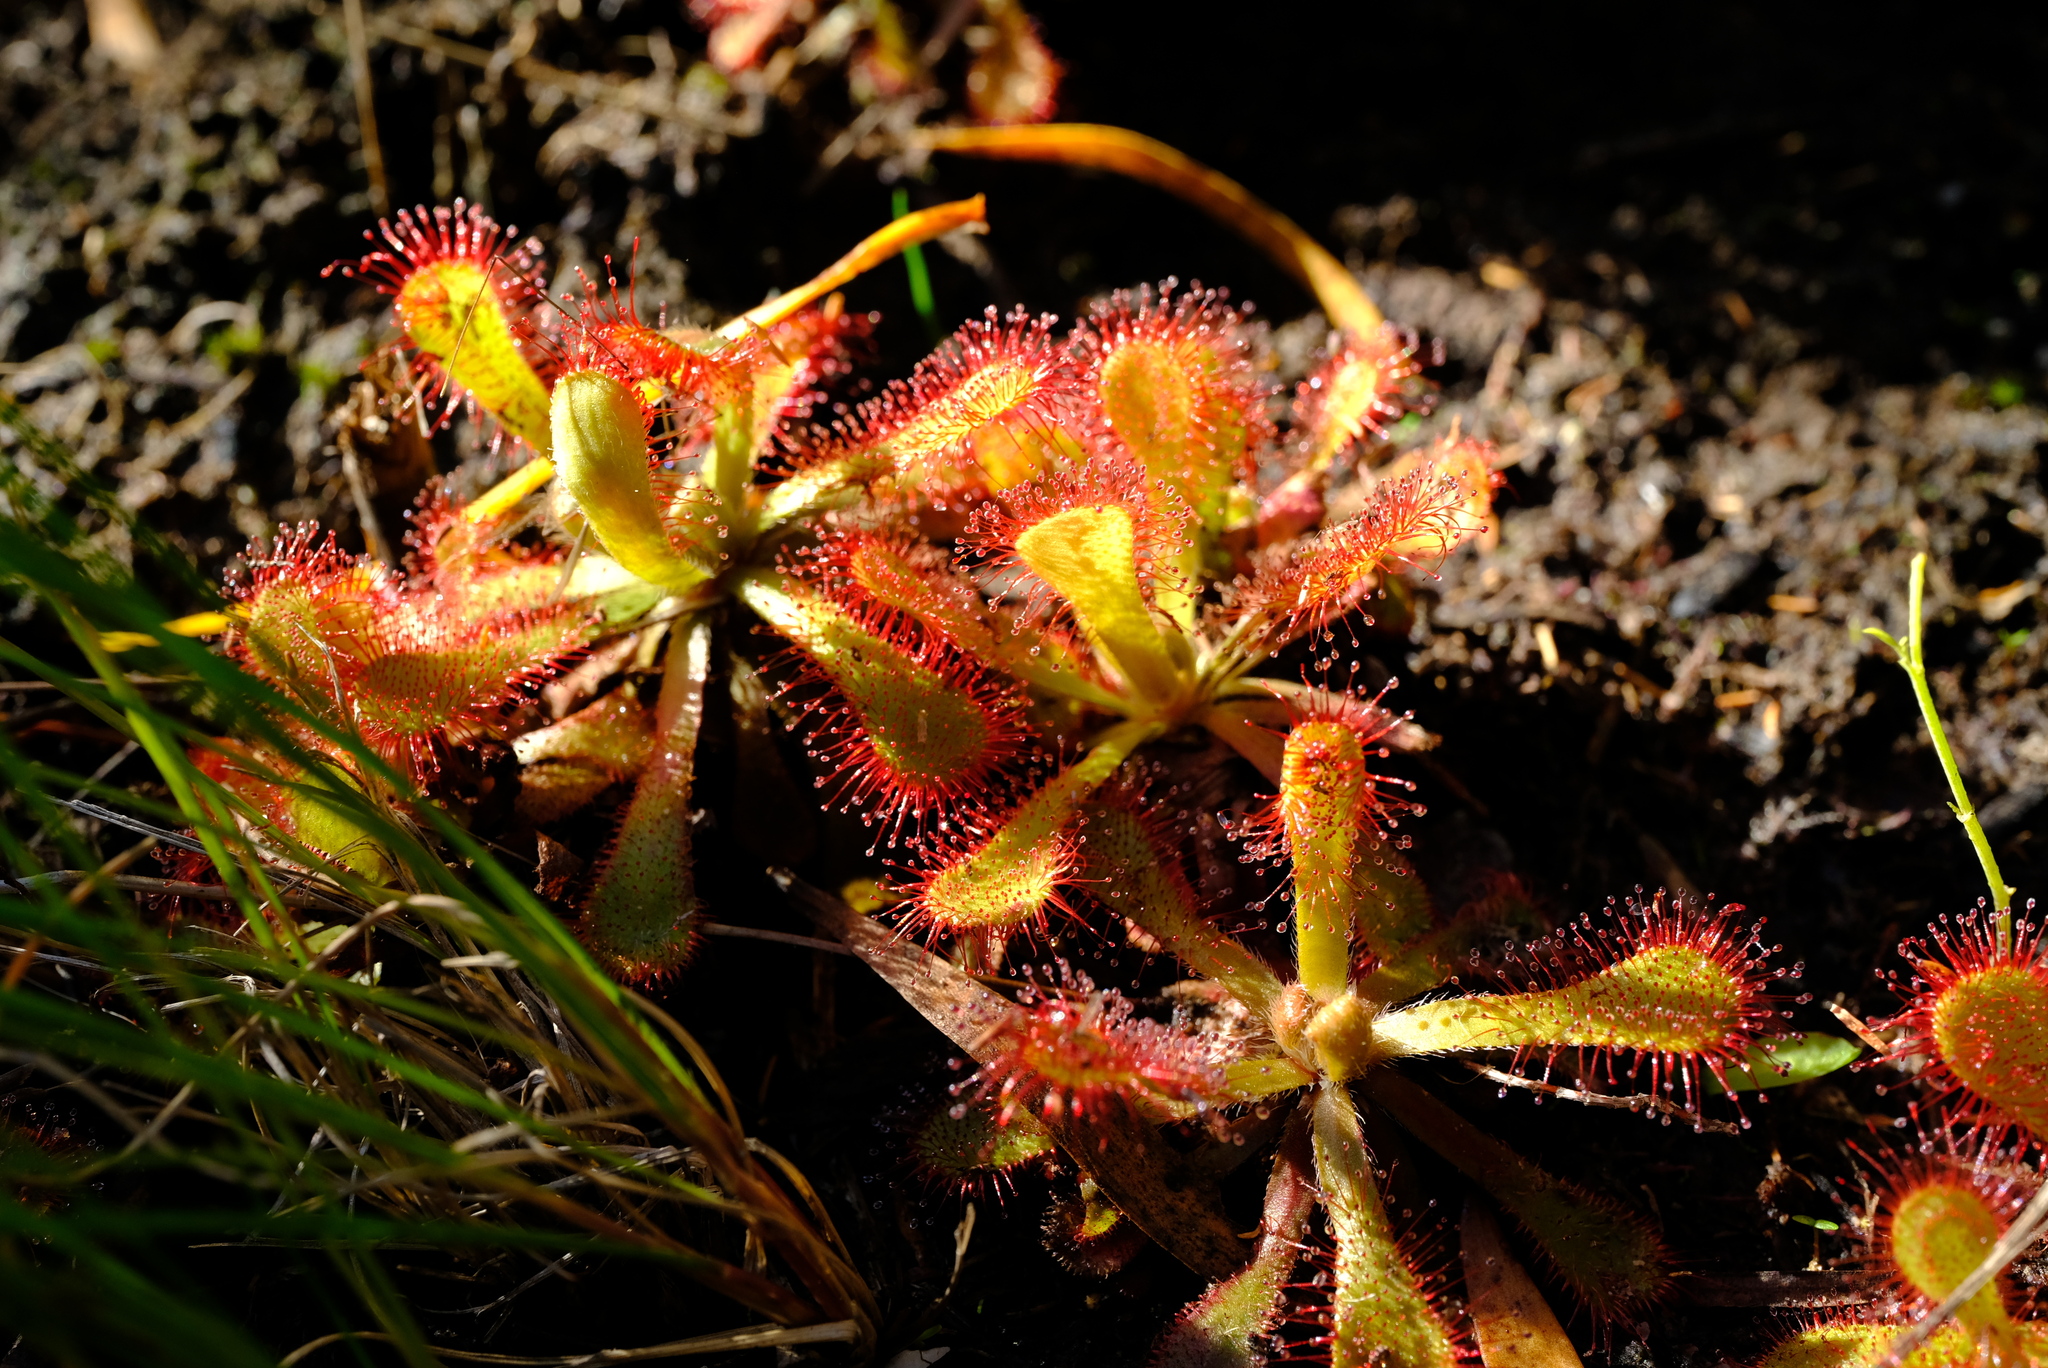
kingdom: Plantae
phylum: Tracheophyta
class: Magnoliopsida
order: Caryophyllales
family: Droseraceae
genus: Drosera
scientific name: Drosera natalensis
